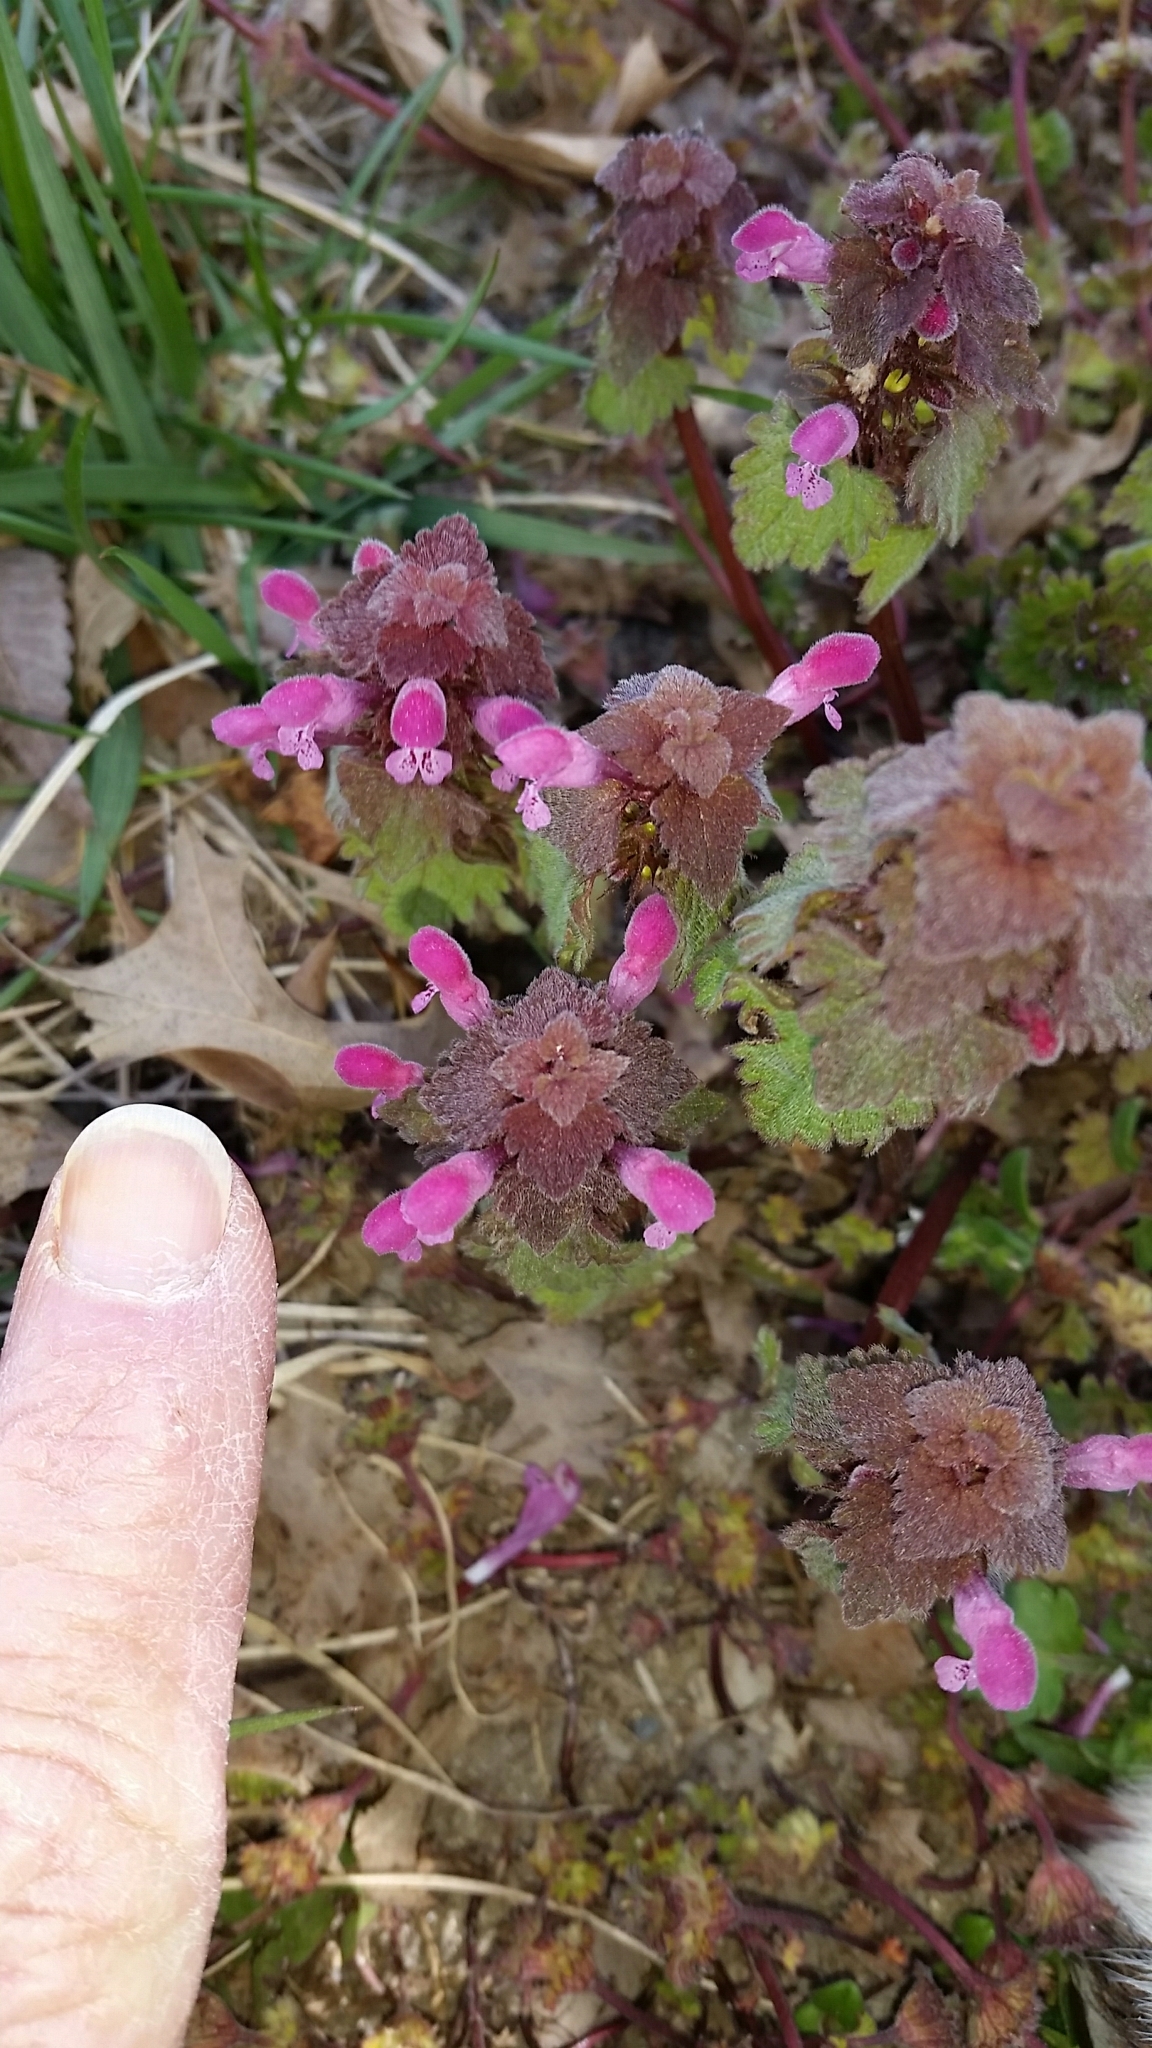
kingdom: Plantae
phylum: Tracheophyta
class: Magnoliopsida
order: Lamiales
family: Lamiaceae
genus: Lamium
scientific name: Lamium purpureum
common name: Red dead-nettle
